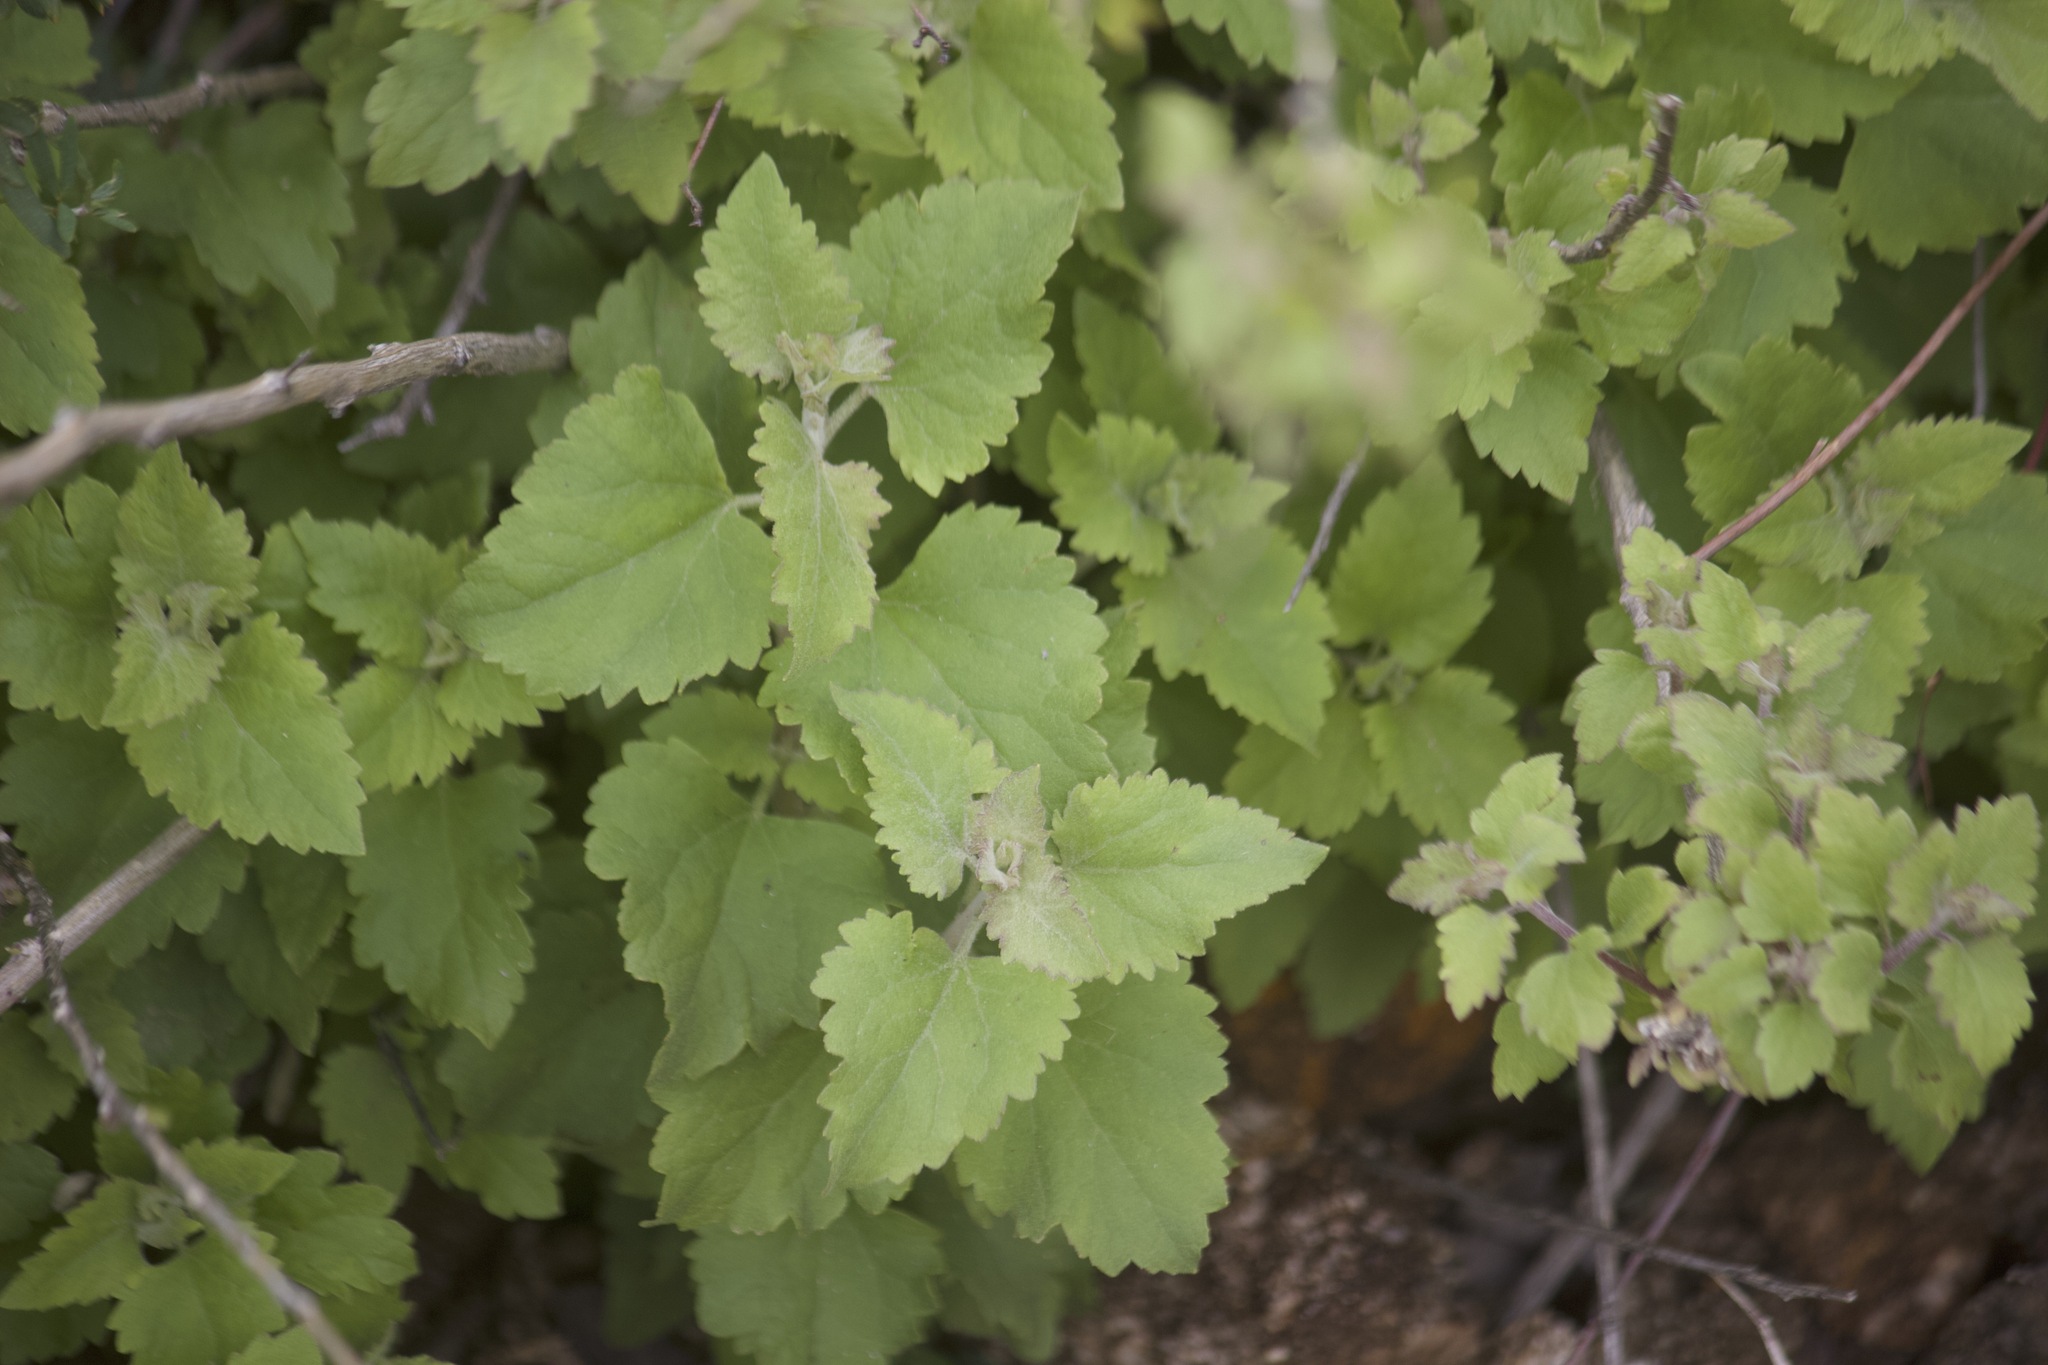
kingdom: Plantae
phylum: Tracheophyta
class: Magnoliopsida
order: Asterales
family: Asteraceae
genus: Brickellia
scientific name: Brickellia californica
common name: California brickellbush
